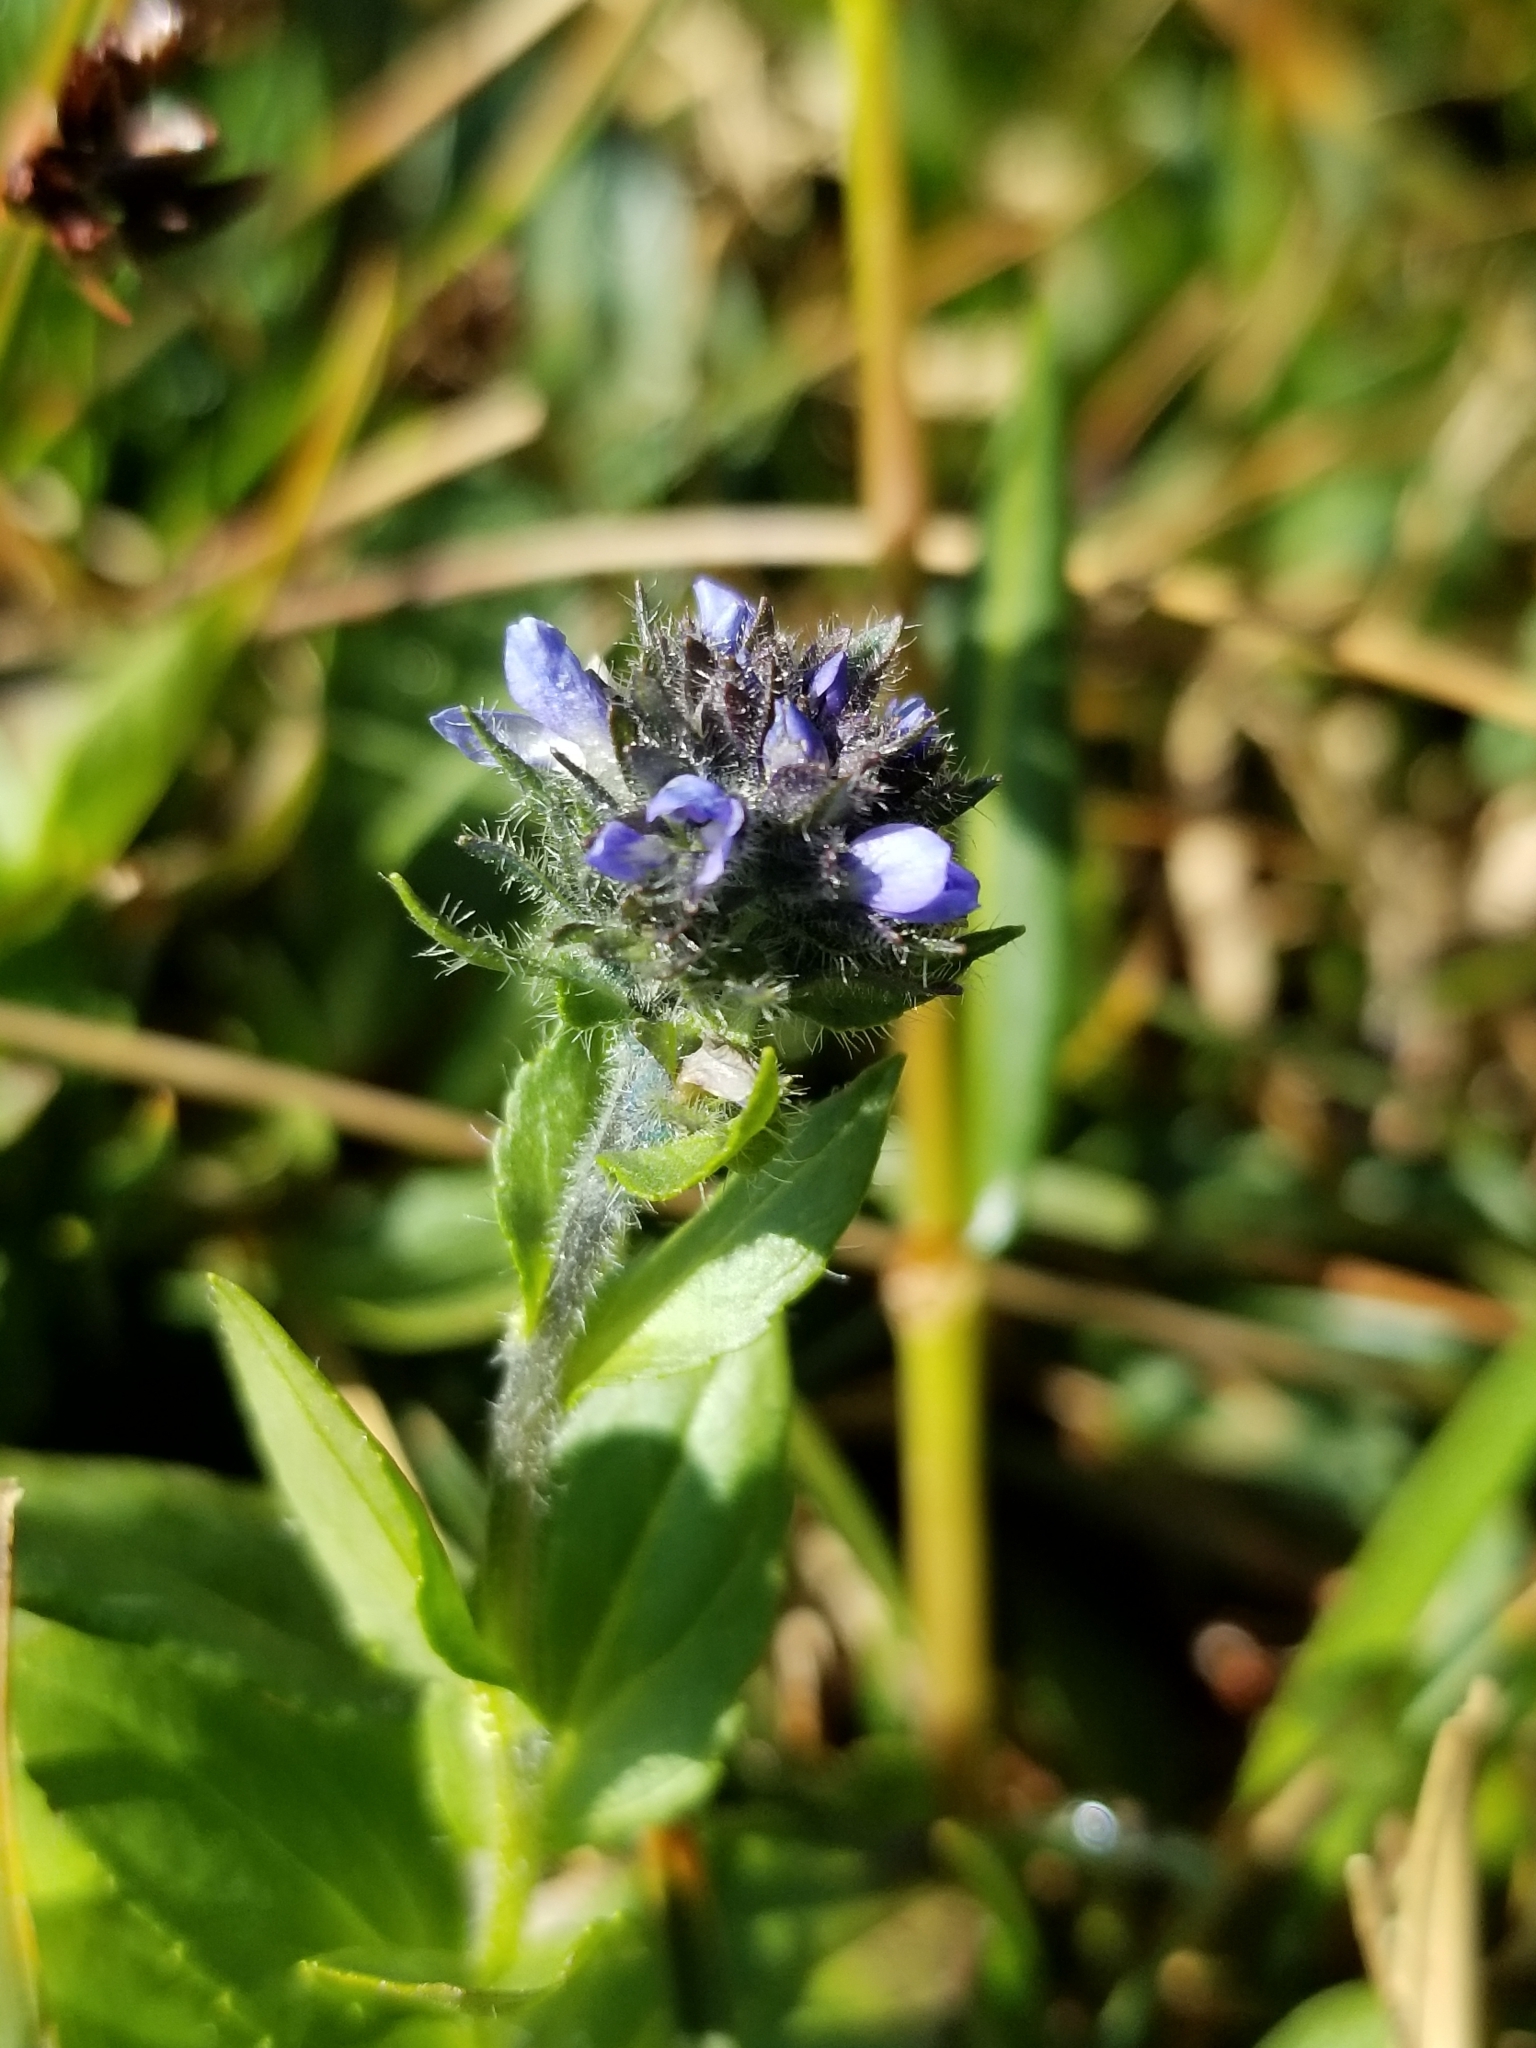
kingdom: Plantae
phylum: Tracheophyta
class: Magnoliopsida
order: Lamiales
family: Plantaginaceae
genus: Veronica
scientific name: Veronica wormskjoldii
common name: American alpine speedwell
